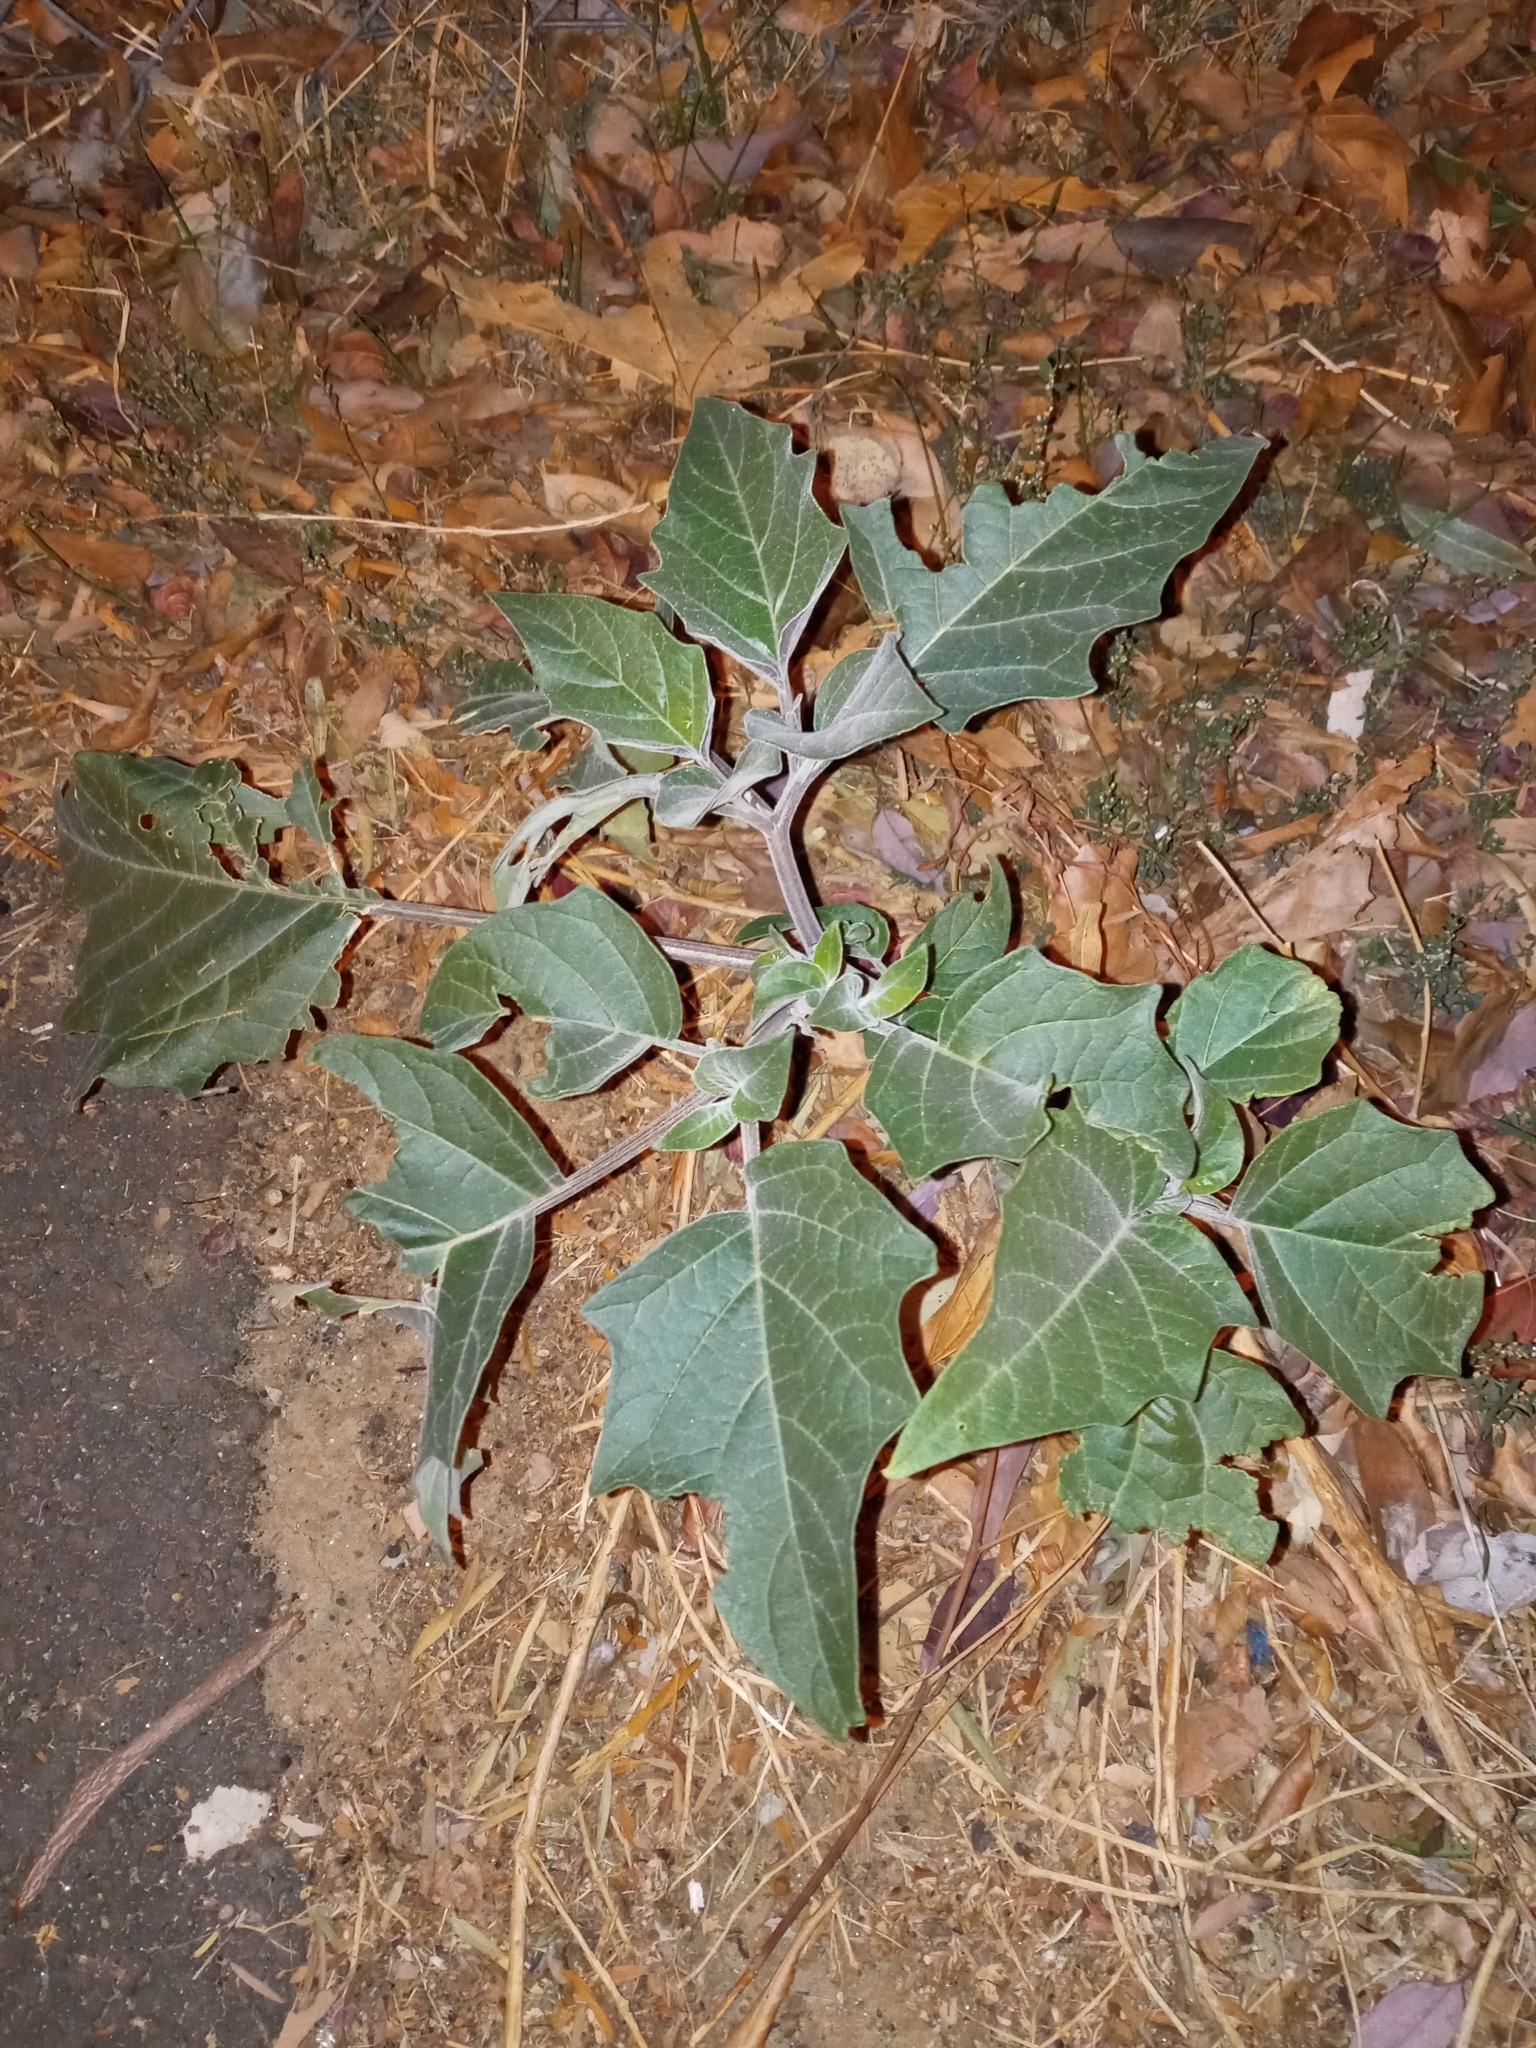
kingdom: Plantae
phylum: Tracheophyta
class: Magnoliopsida
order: Solanales
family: Solanaceae
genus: Datura
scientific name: Datura wrightii
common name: Sacred thorn-apple
